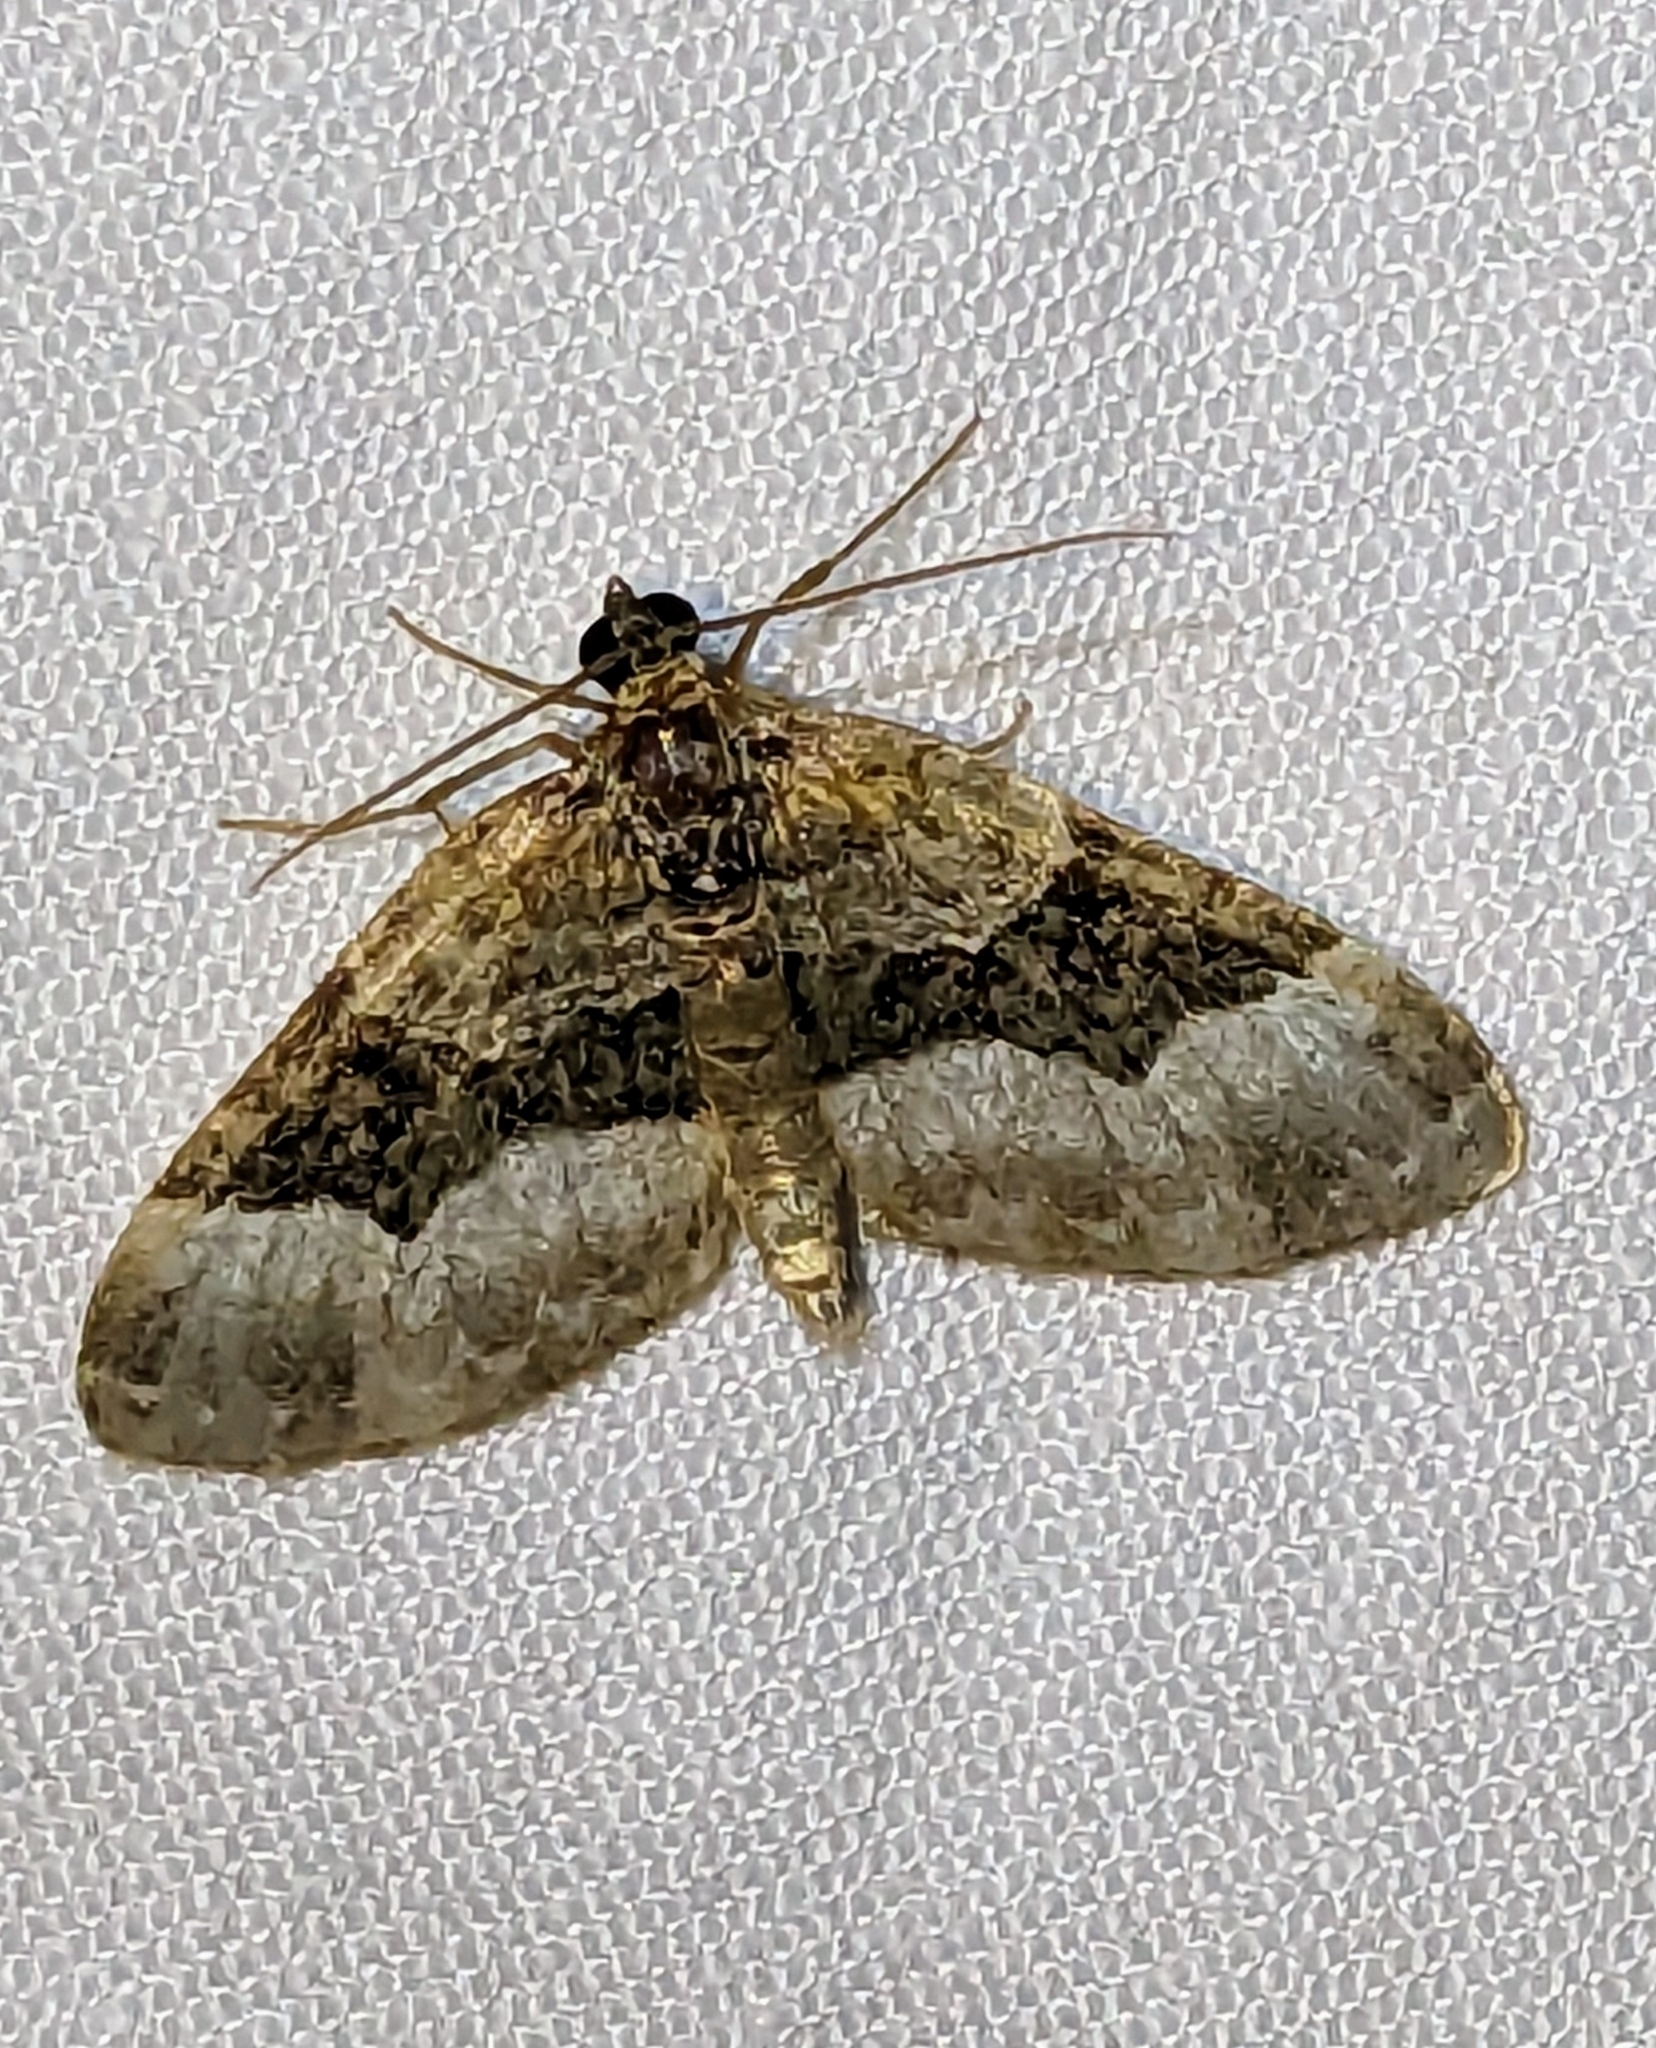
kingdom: Animalia
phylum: Arthropoda
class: Insecta
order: Lepidoptera
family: Geometridae
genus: Euphyia
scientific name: Euphyia intermediata
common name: Sharp-angled carpet
